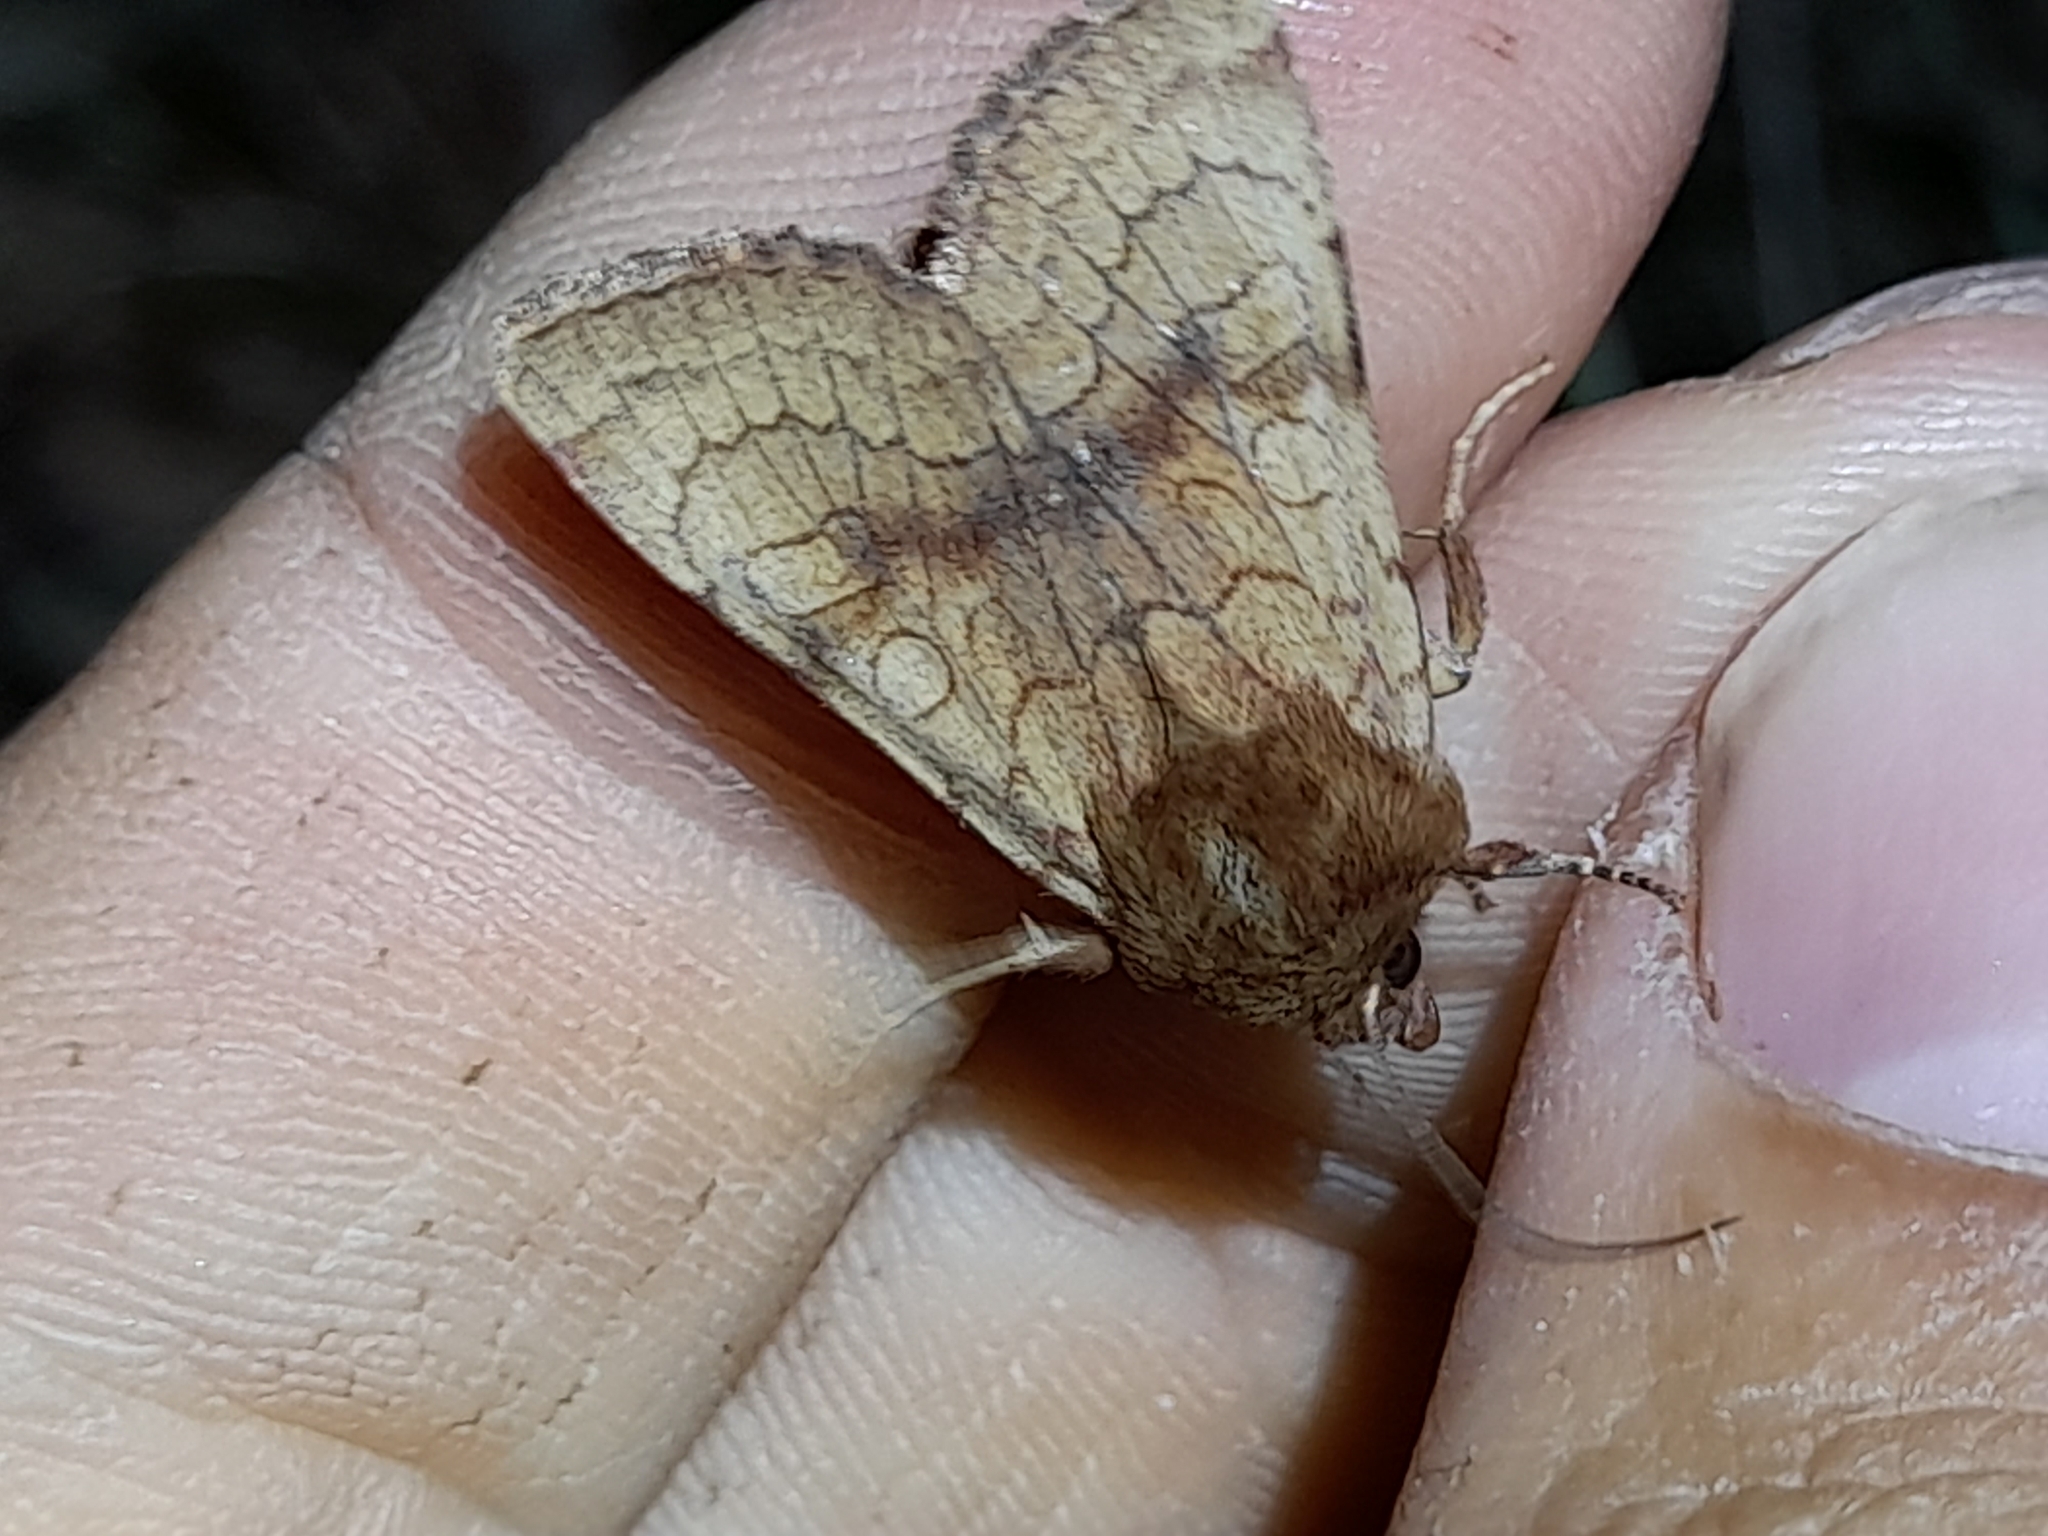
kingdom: Animalia
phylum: Arthropoda
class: Insecta
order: Lepidoptera
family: Noctuidae
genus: Sideridis
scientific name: Sideridis lampra
